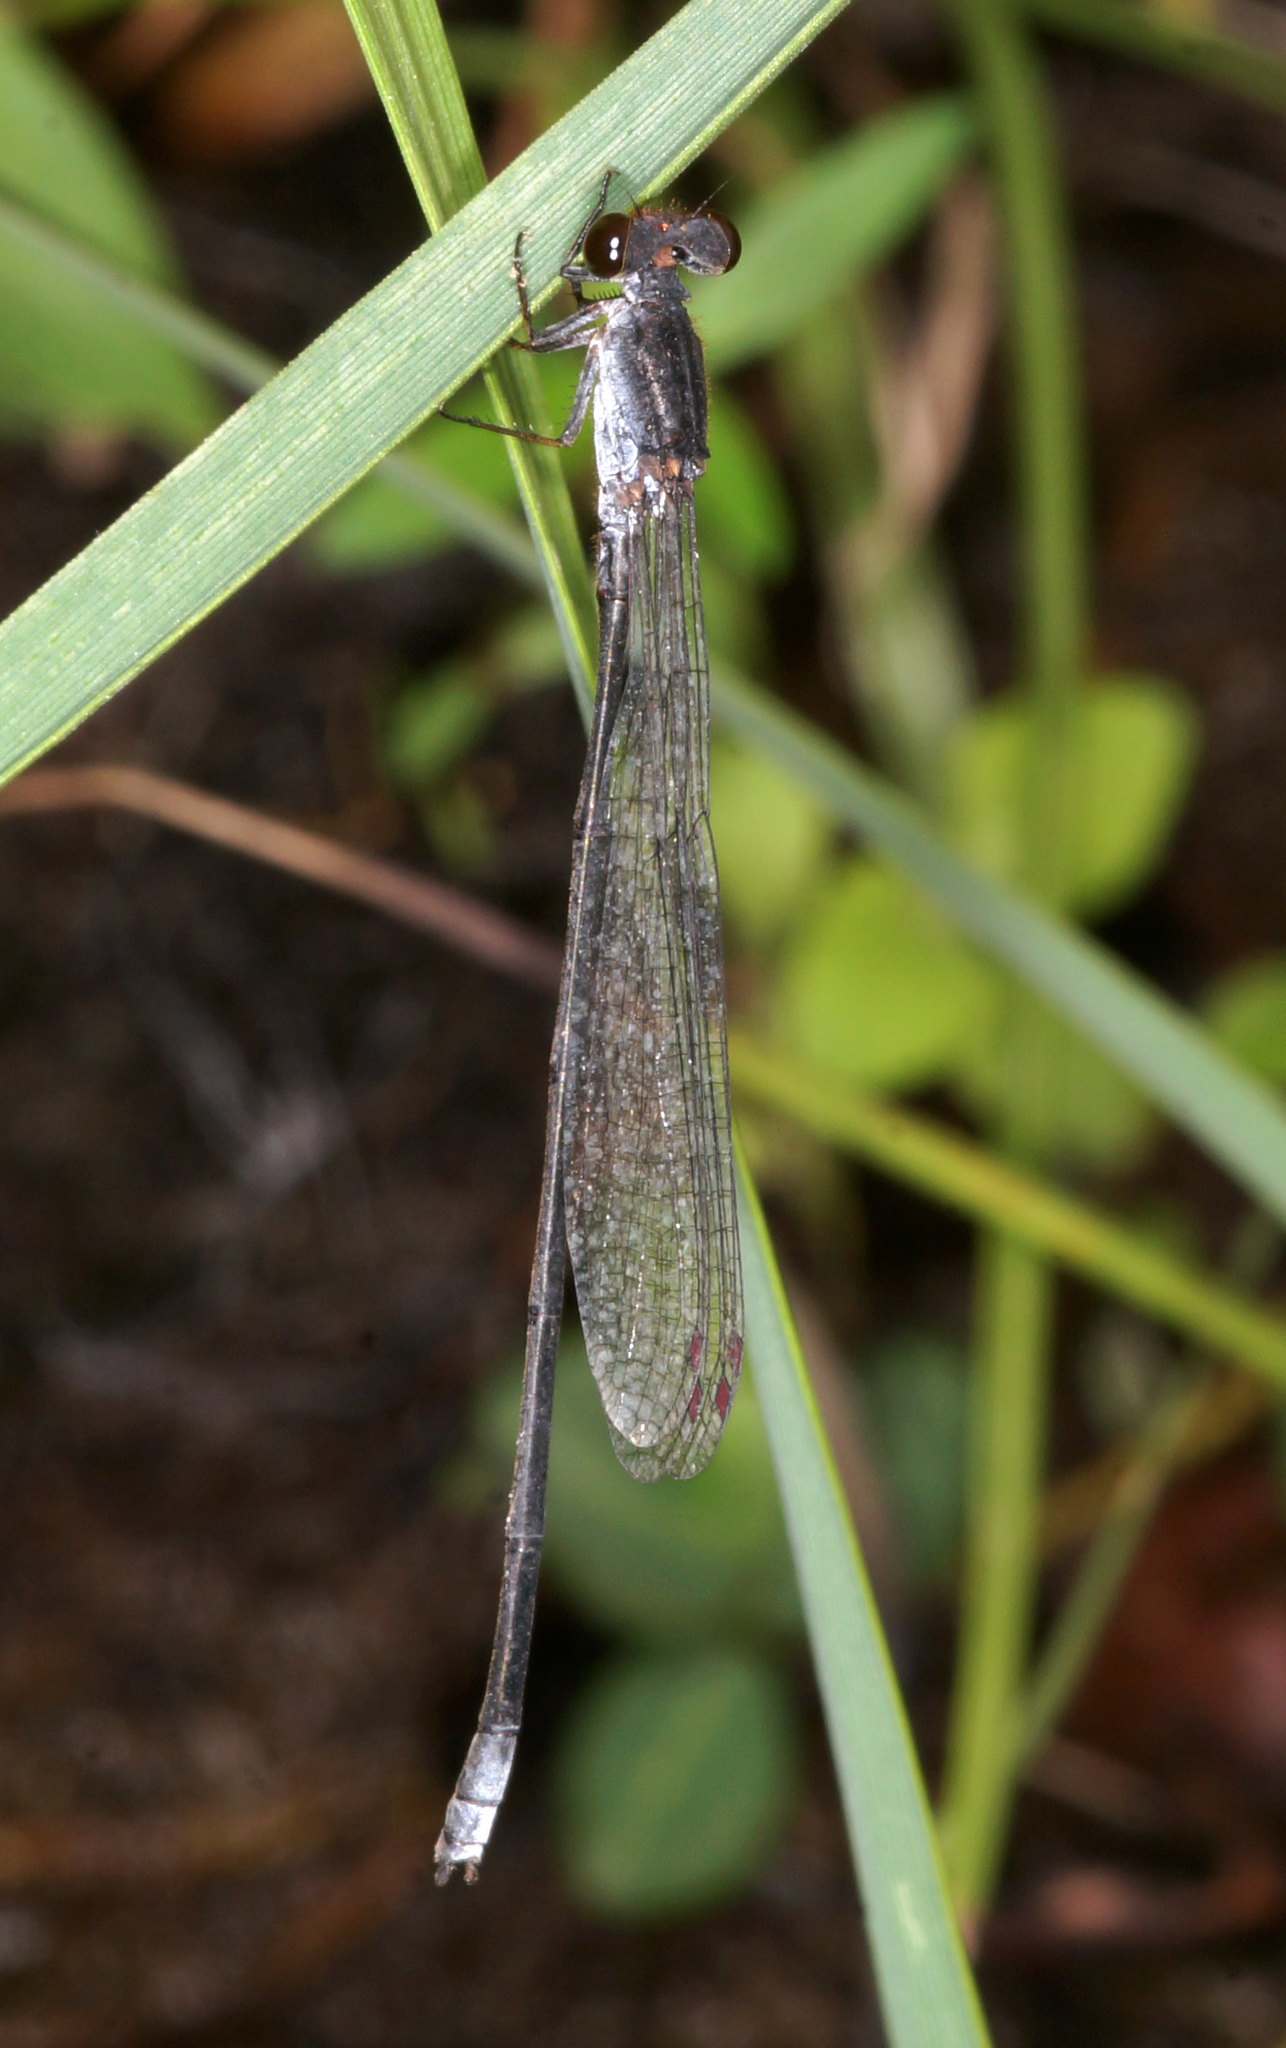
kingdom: Animalia
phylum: Arthropoda
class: Insecta
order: Odonata
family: Coenagrionidae
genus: Pseudagrion
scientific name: Pseudagrion pruinosum
